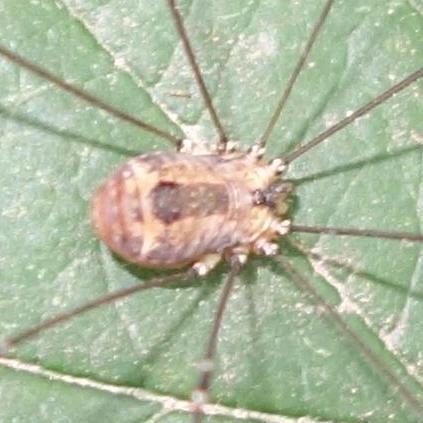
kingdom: Animalia
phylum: Arthropoda
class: Arachnida
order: Opiliones
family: Sclerosomatidae
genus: Leiobunum
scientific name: Leiobunum rotundum
